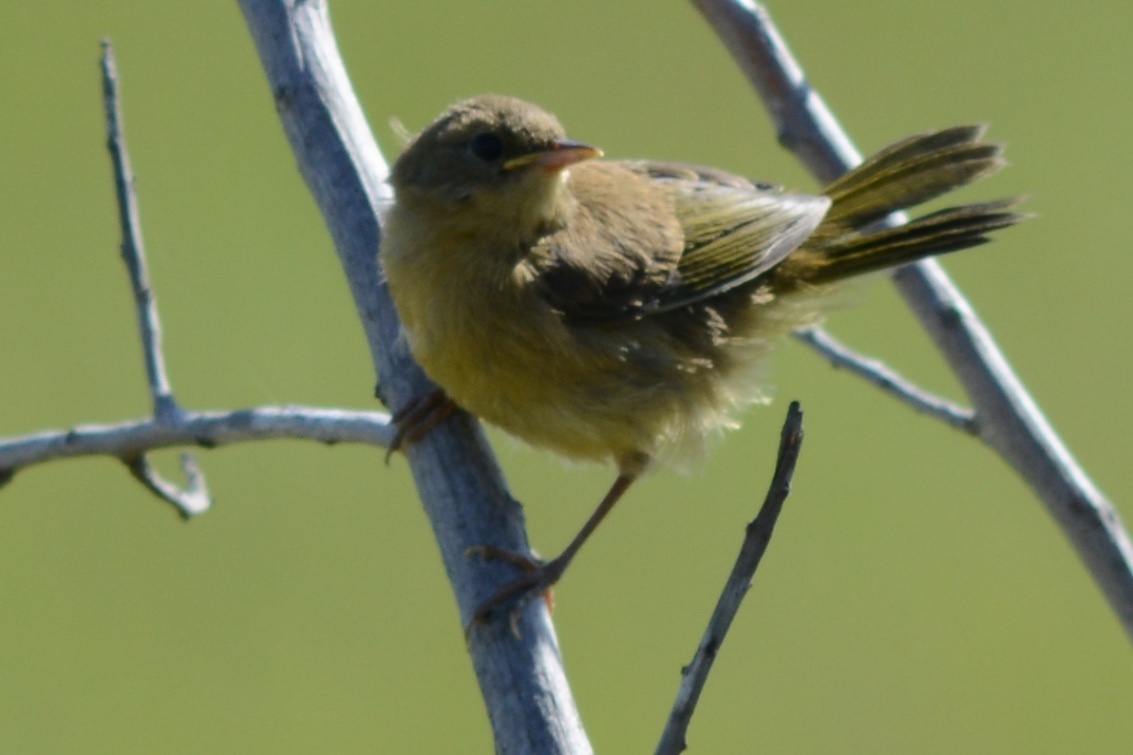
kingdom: Animalia
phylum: Chordata
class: Aves
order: Passeriformes
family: Parulidae
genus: Geothlypis
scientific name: Geothlypis trichas
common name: Common yellowthroat
